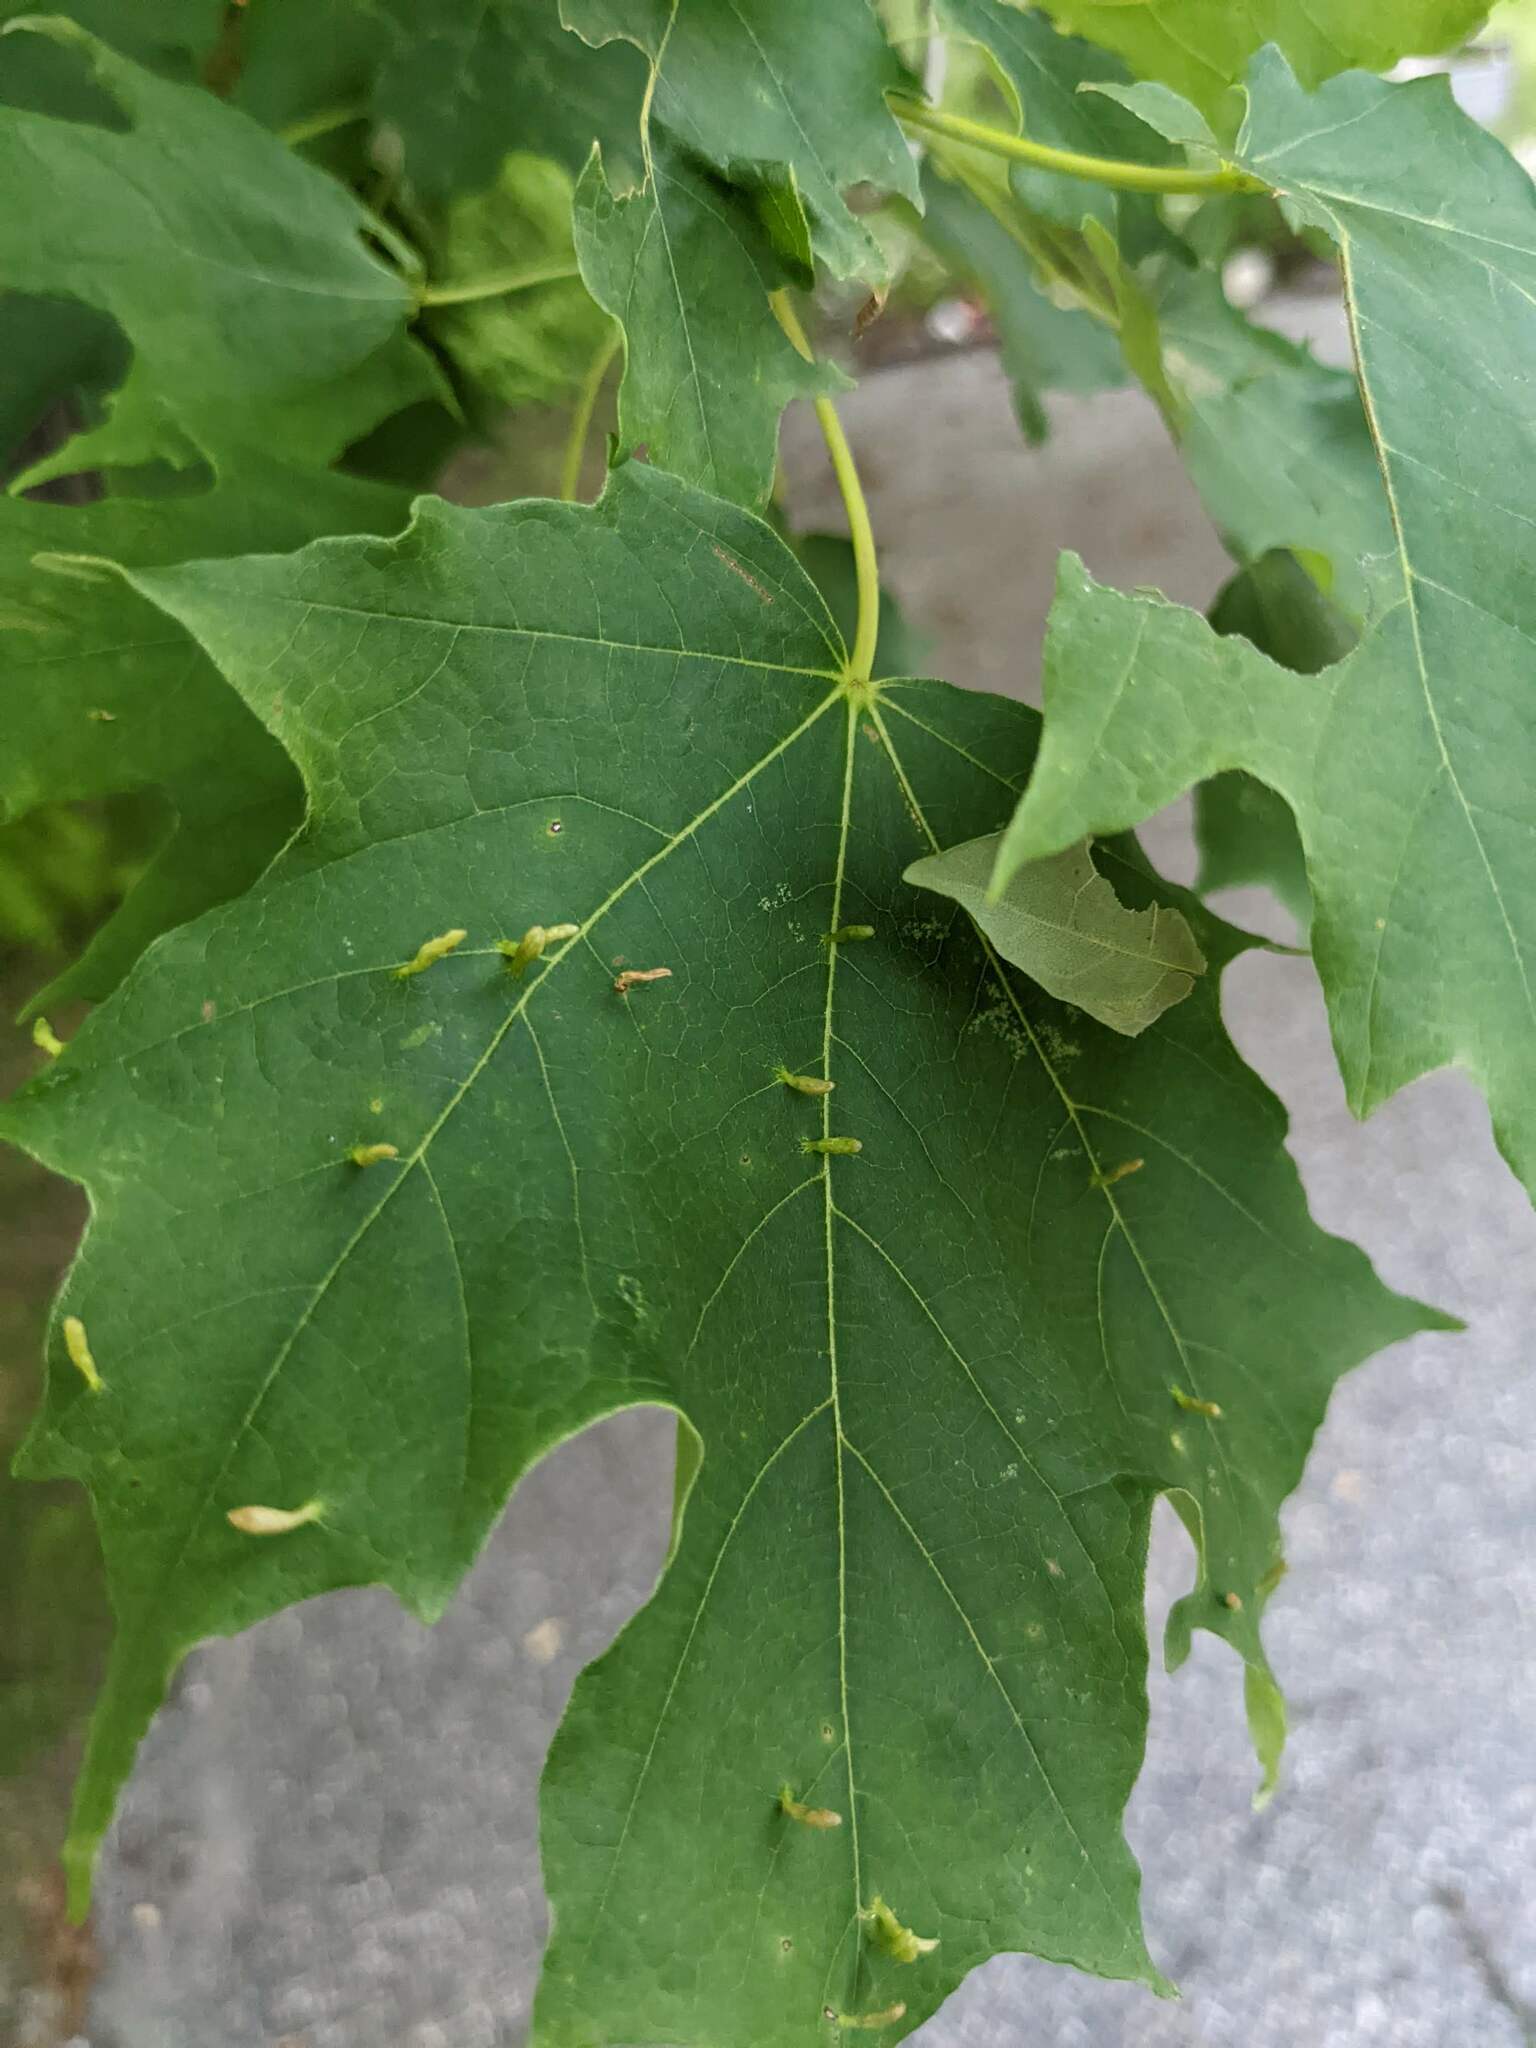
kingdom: Animalia
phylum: Arthropoda
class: Arachnida
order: Trombidiformes
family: Eriophyidae
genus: Vasates
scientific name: Vasates aceriscrumena
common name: Maple spindle gall mite
